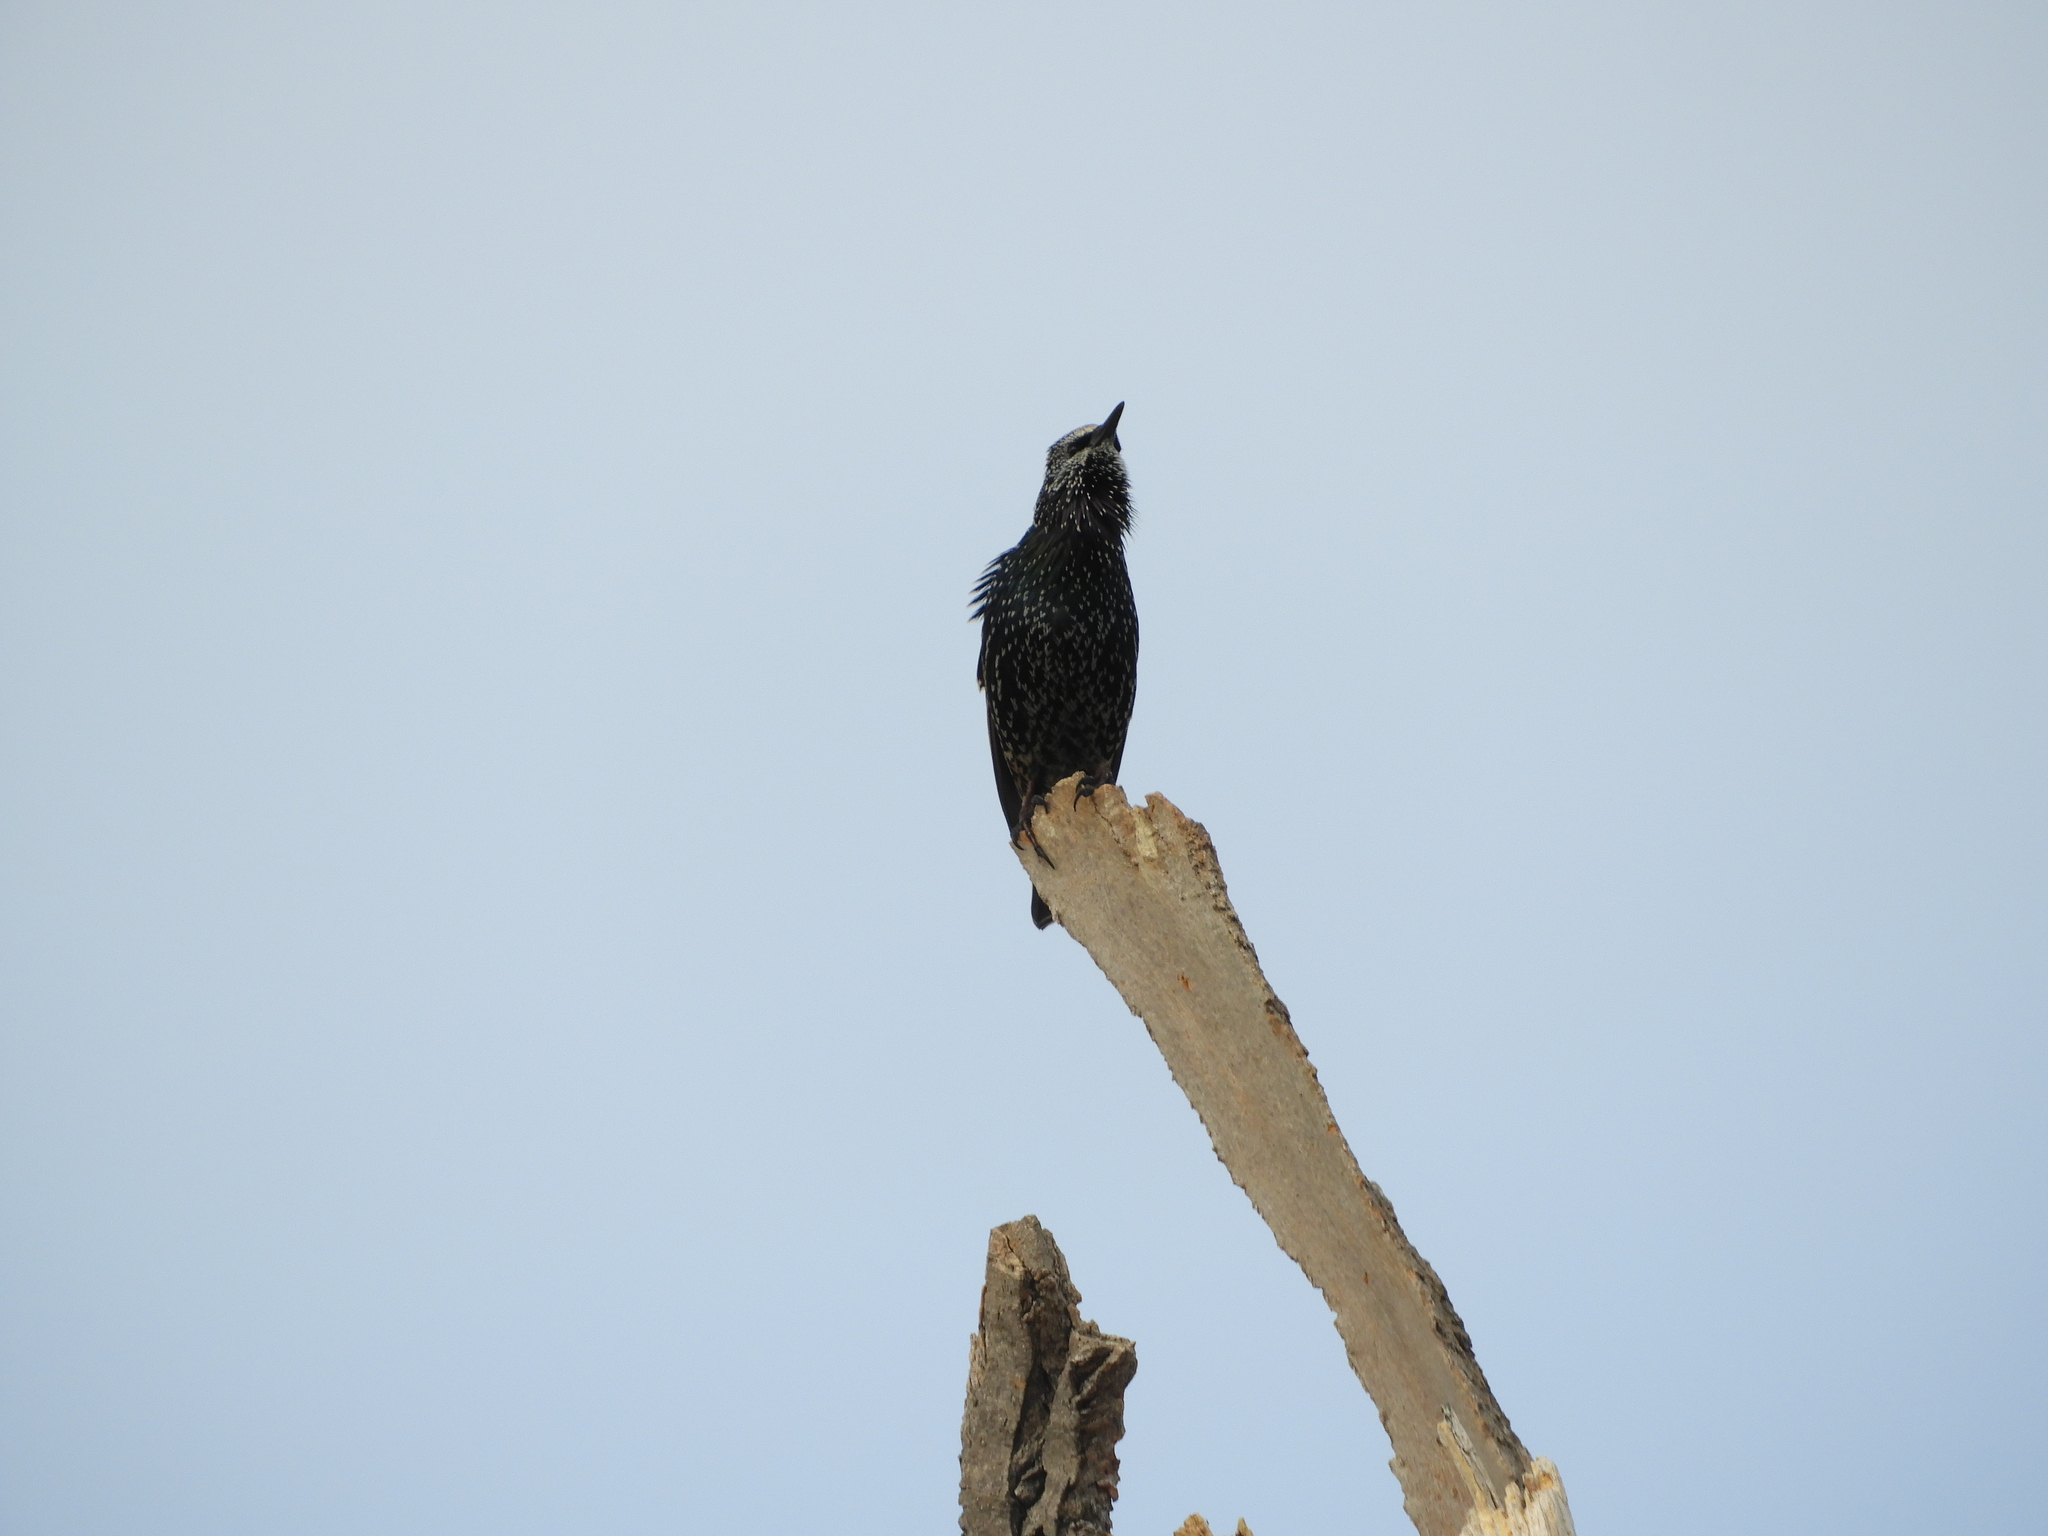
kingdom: Animalia
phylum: Chordata
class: Aves
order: Passeriformes
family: Sturnidae
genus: Sturnus
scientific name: Sturnus vulgaris
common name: Common starling
